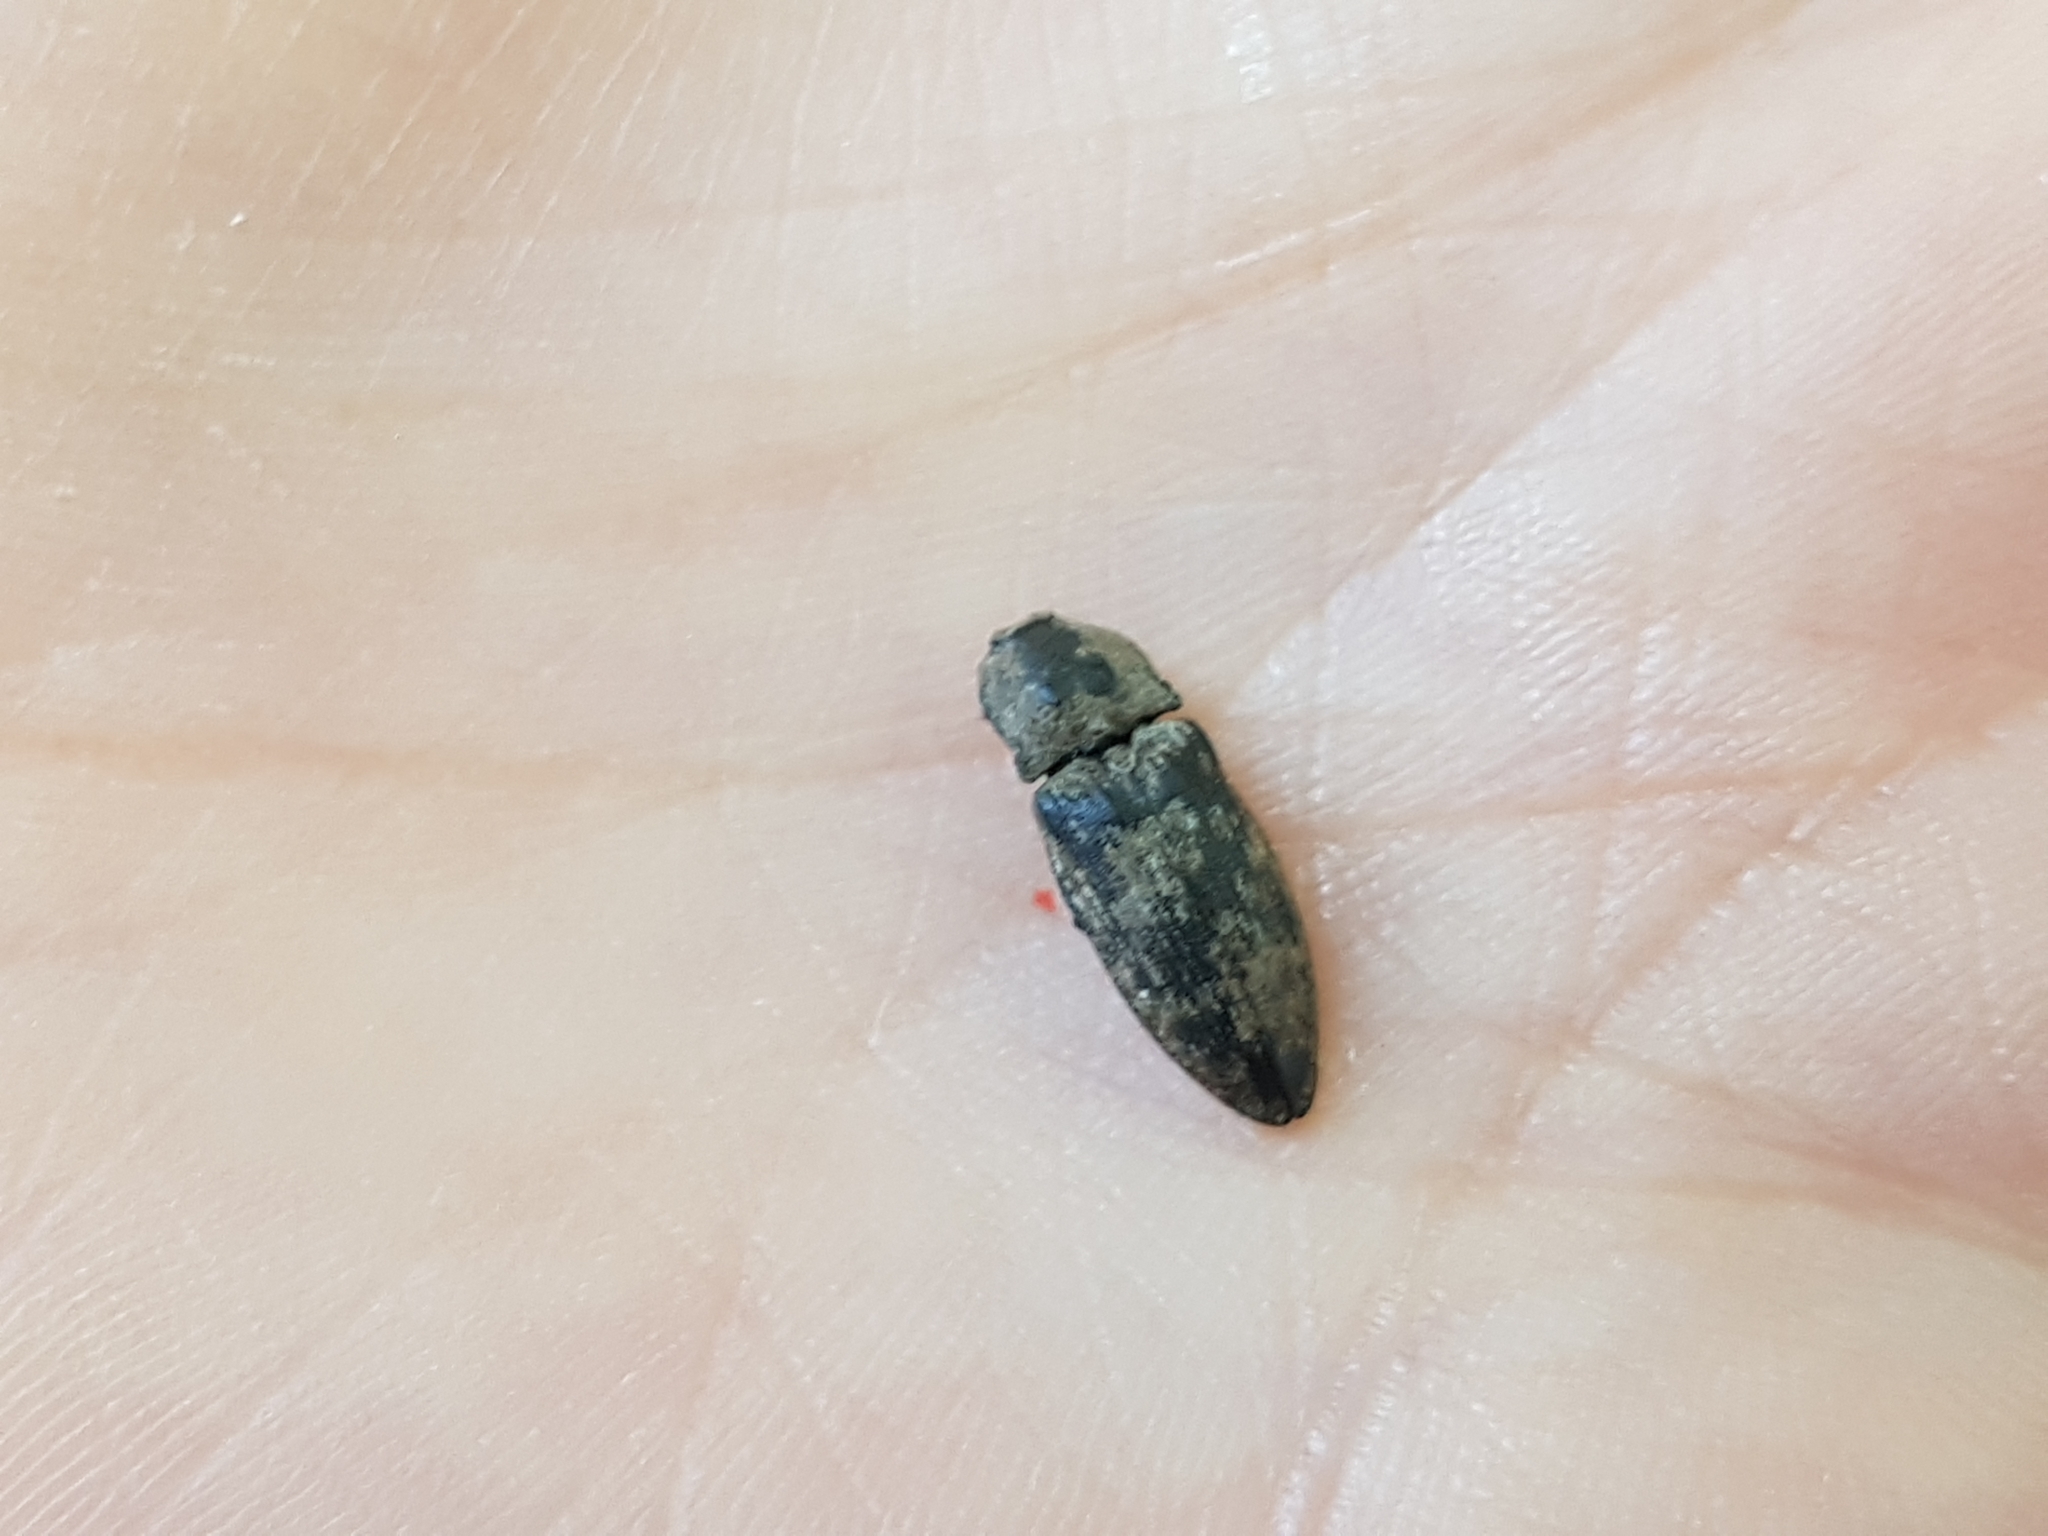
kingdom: Animalia
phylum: Arthropoda
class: Insecta
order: Coleoptera
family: Elateridae
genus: Agrypnus
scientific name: Agrypnus murinus
